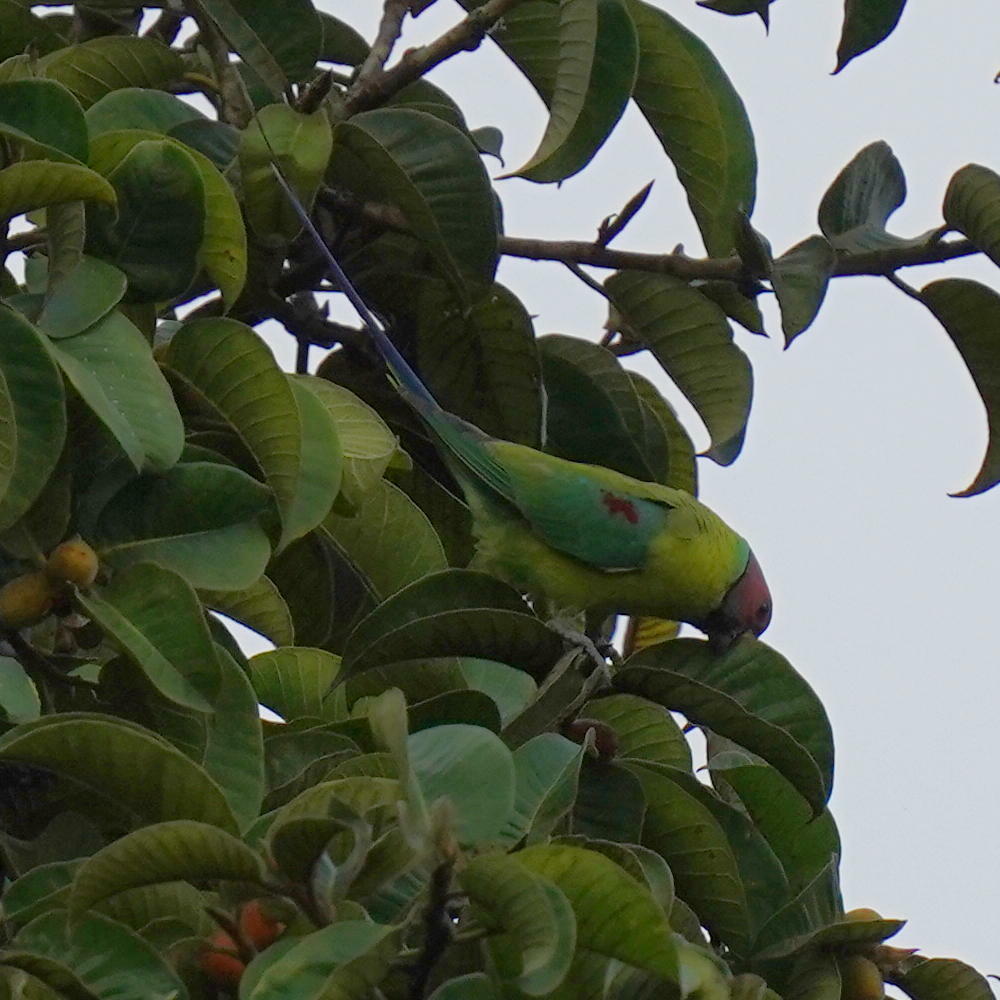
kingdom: Animalia
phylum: Chordata
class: Aves
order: Psittaciformes
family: Psittacidae
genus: Psittacula
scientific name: Psittacula cyanocephala
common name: Plum-headed parakeet
